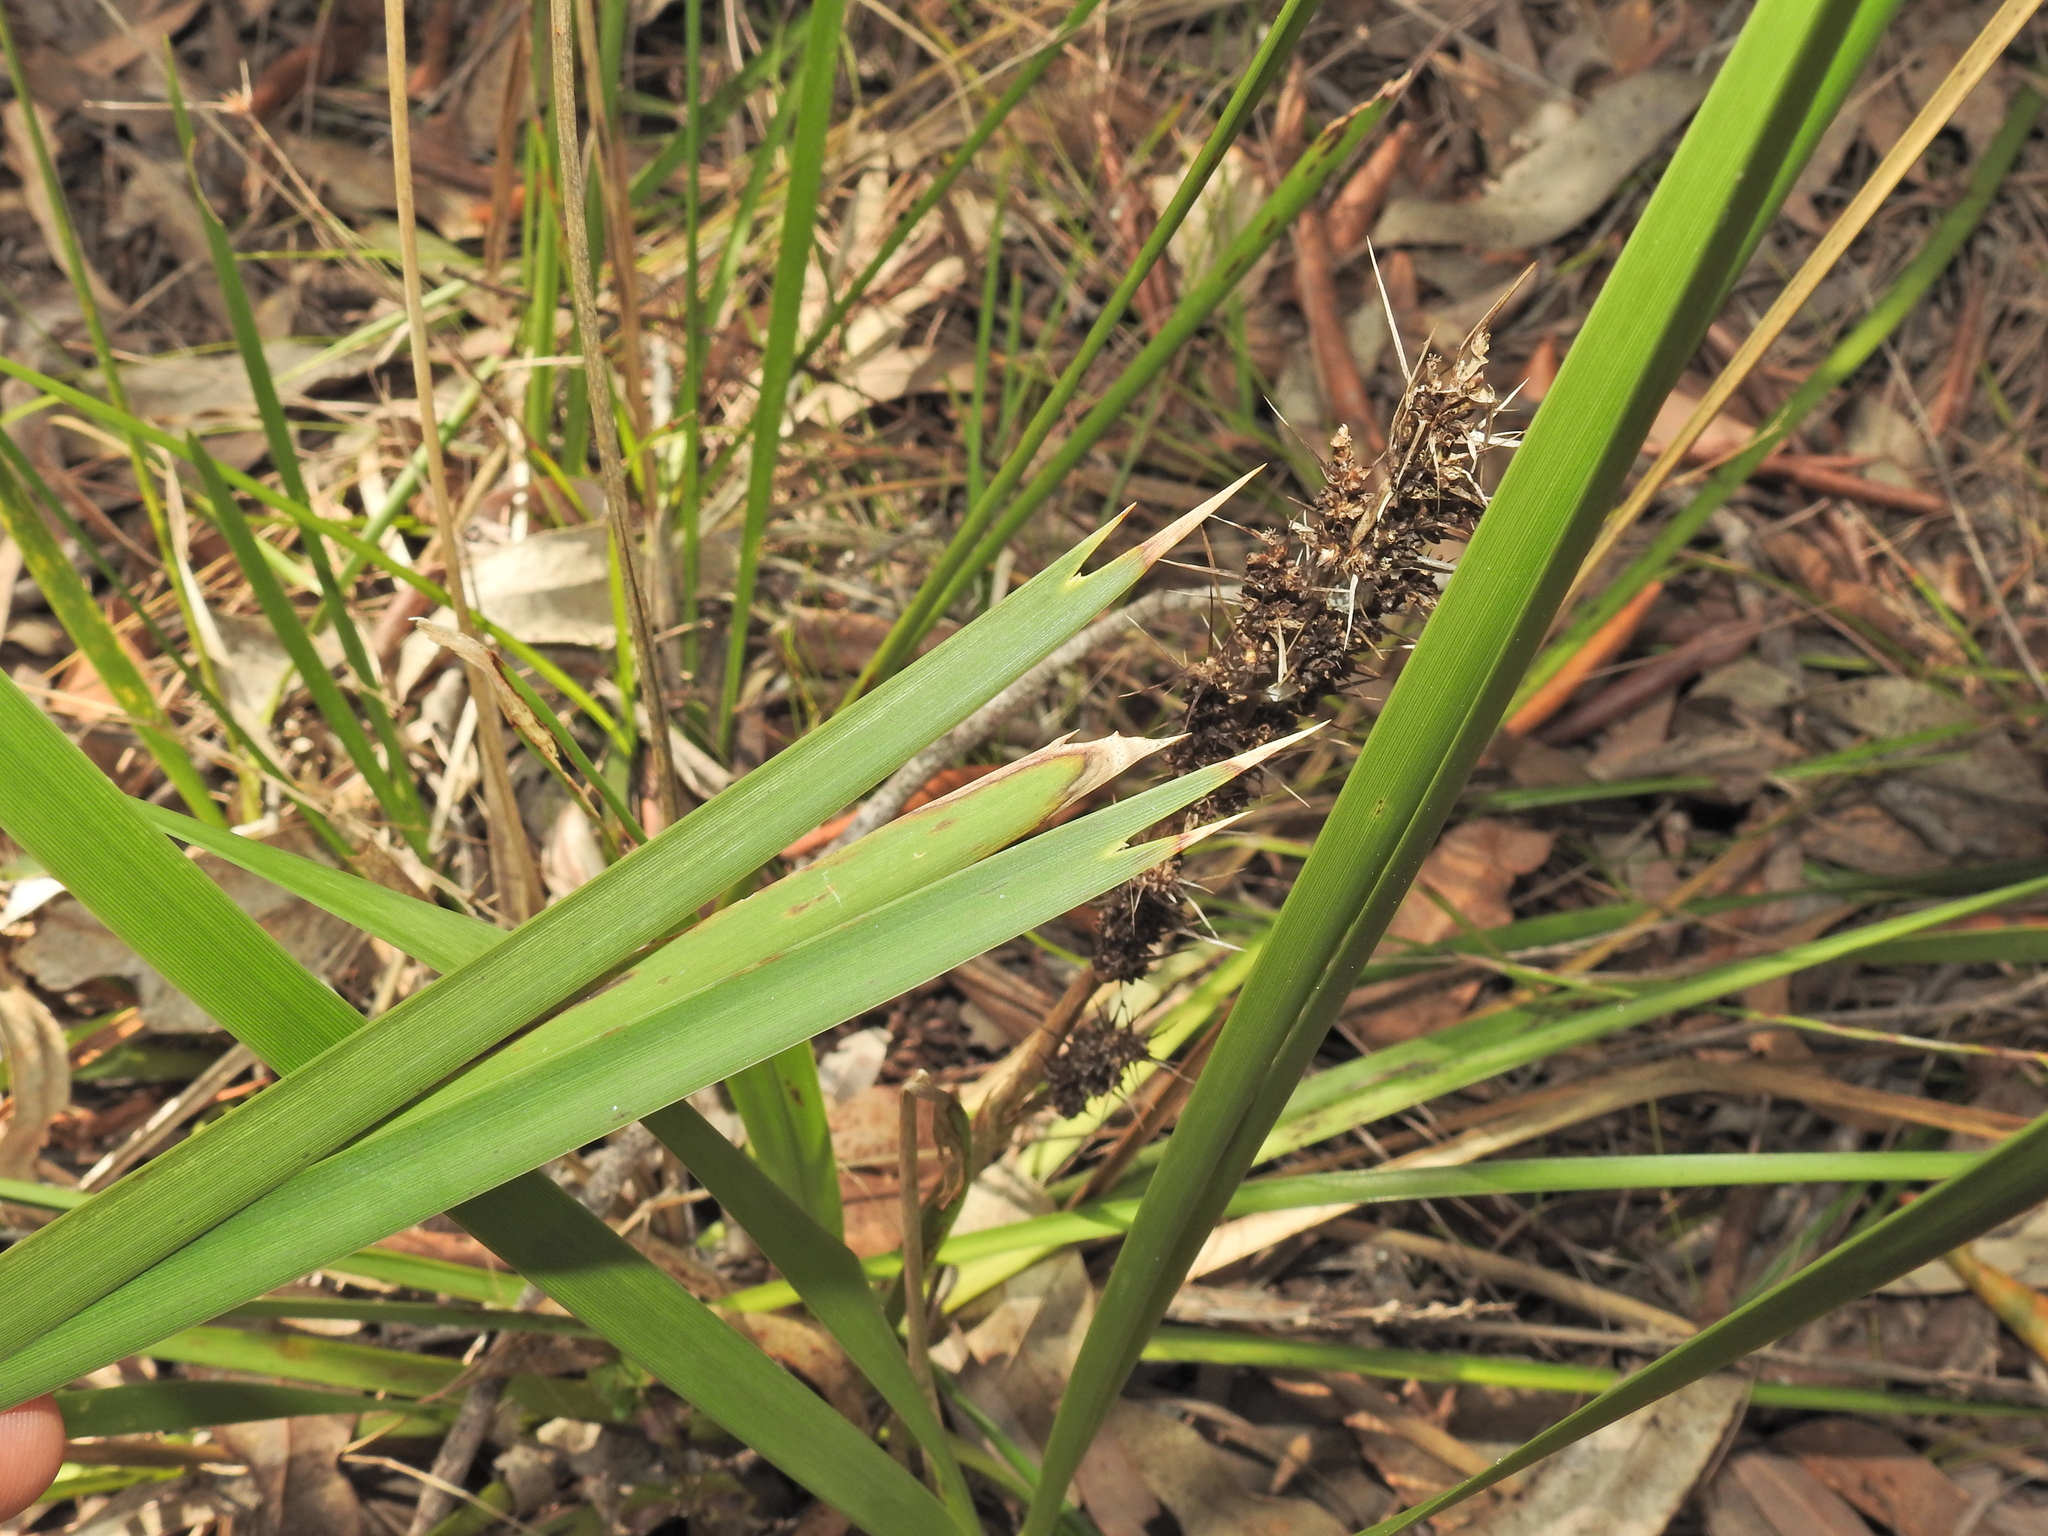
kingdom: Plantae
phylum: Tracheophyta
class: Liliopsida
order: Asparagales
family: Asparagaceae
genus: Lomandra
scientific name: Lomandra longifolia
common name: Longleaf mat-rush
